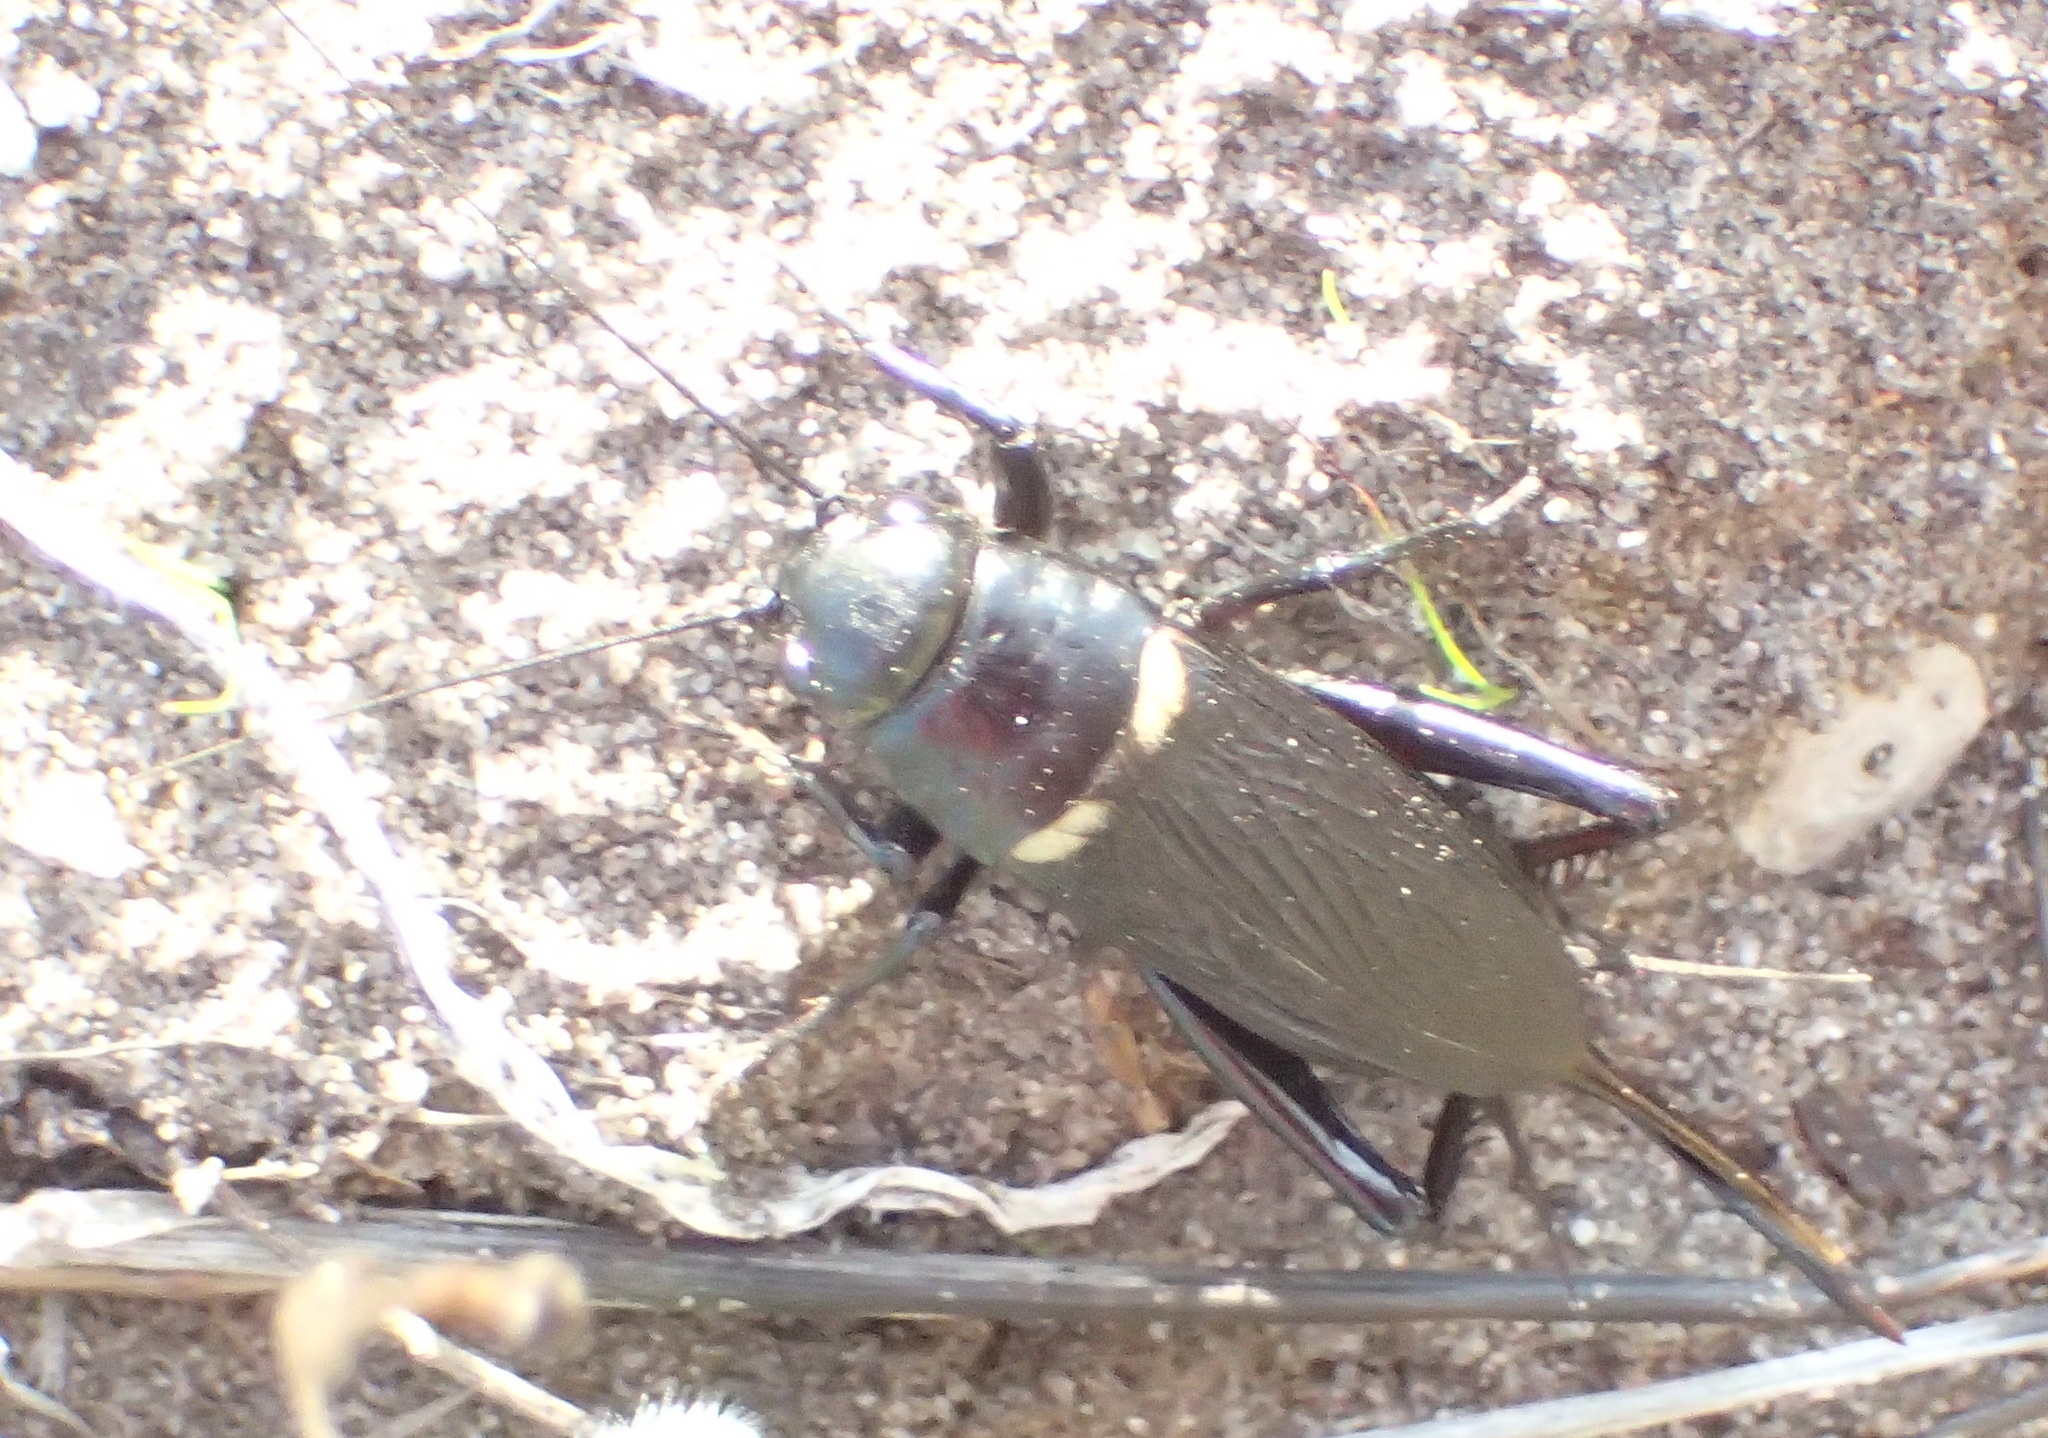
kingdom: Animalia
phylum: Arthropoda
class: Insecta
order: Orthoptera
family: Gryllidae
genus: Gryllus
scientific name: Gryllus bimaculatus
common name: Two-spotted cricket
